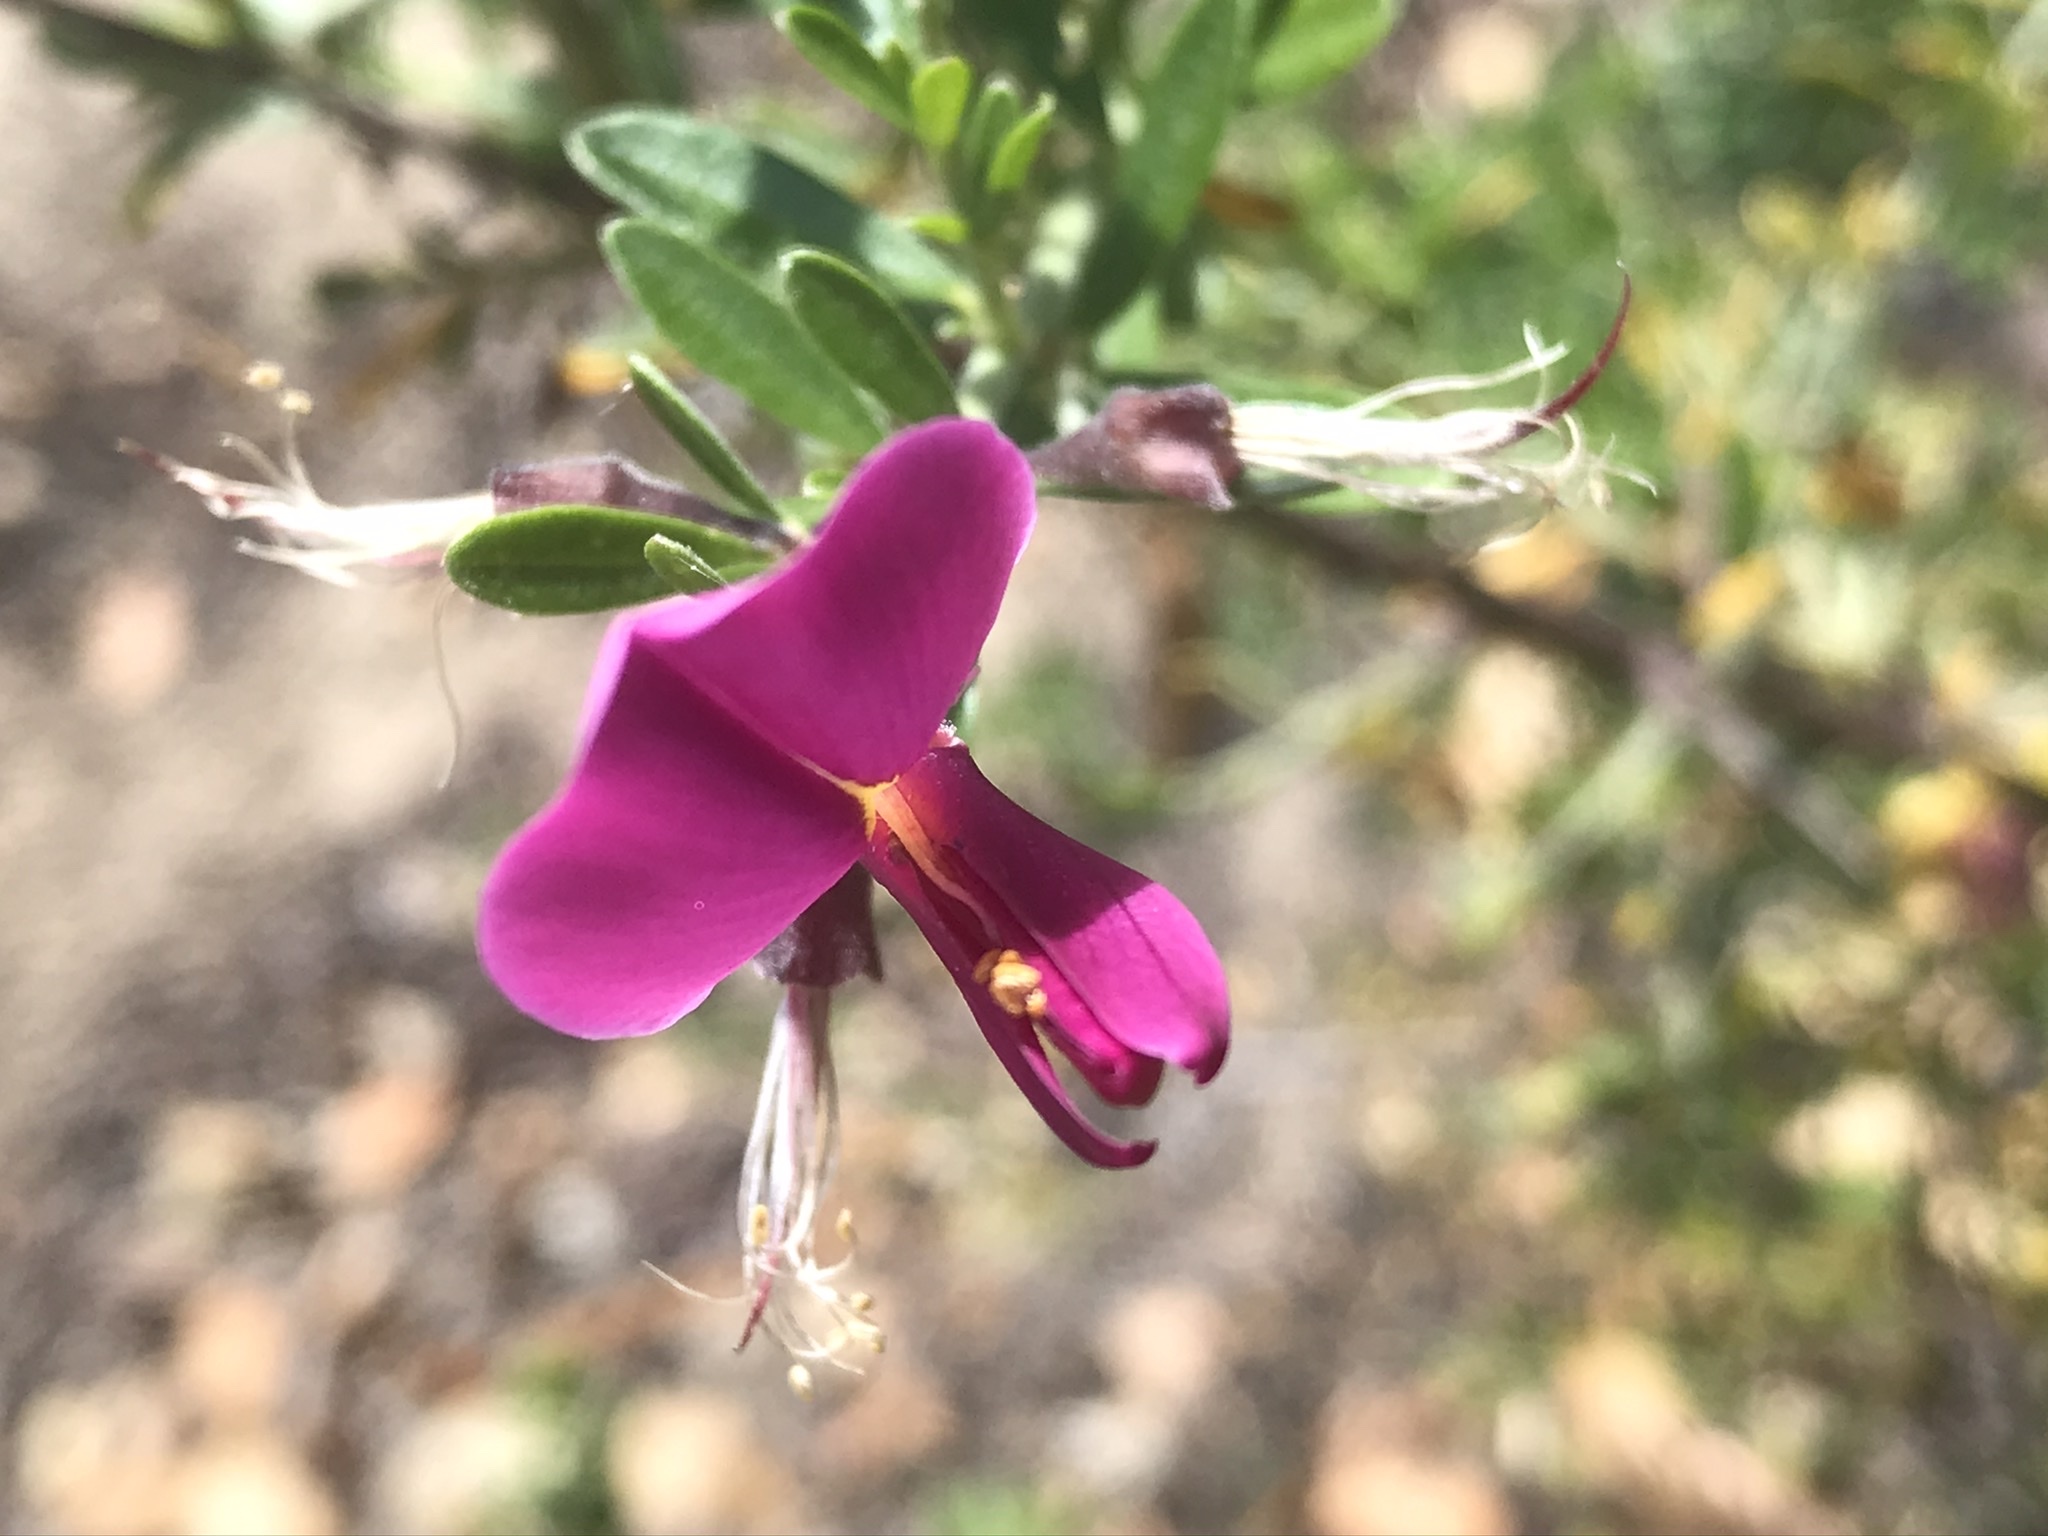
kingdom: Plantae
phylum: Tracheophyta
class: Magnoliopsida
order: Fabales
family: Fabaceae
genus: Pickeringia
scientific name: Pickeringia montana
